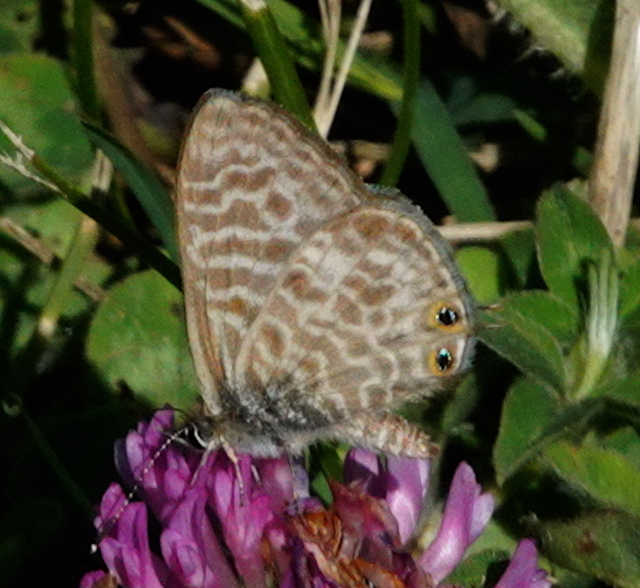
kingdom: Animalia
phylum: Arthropoda
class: Insecta
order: Lepidoptera
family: Lycaenidae
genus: Leptotes
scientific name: Leptotes pirithous
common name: Lang's short-tailed blue
